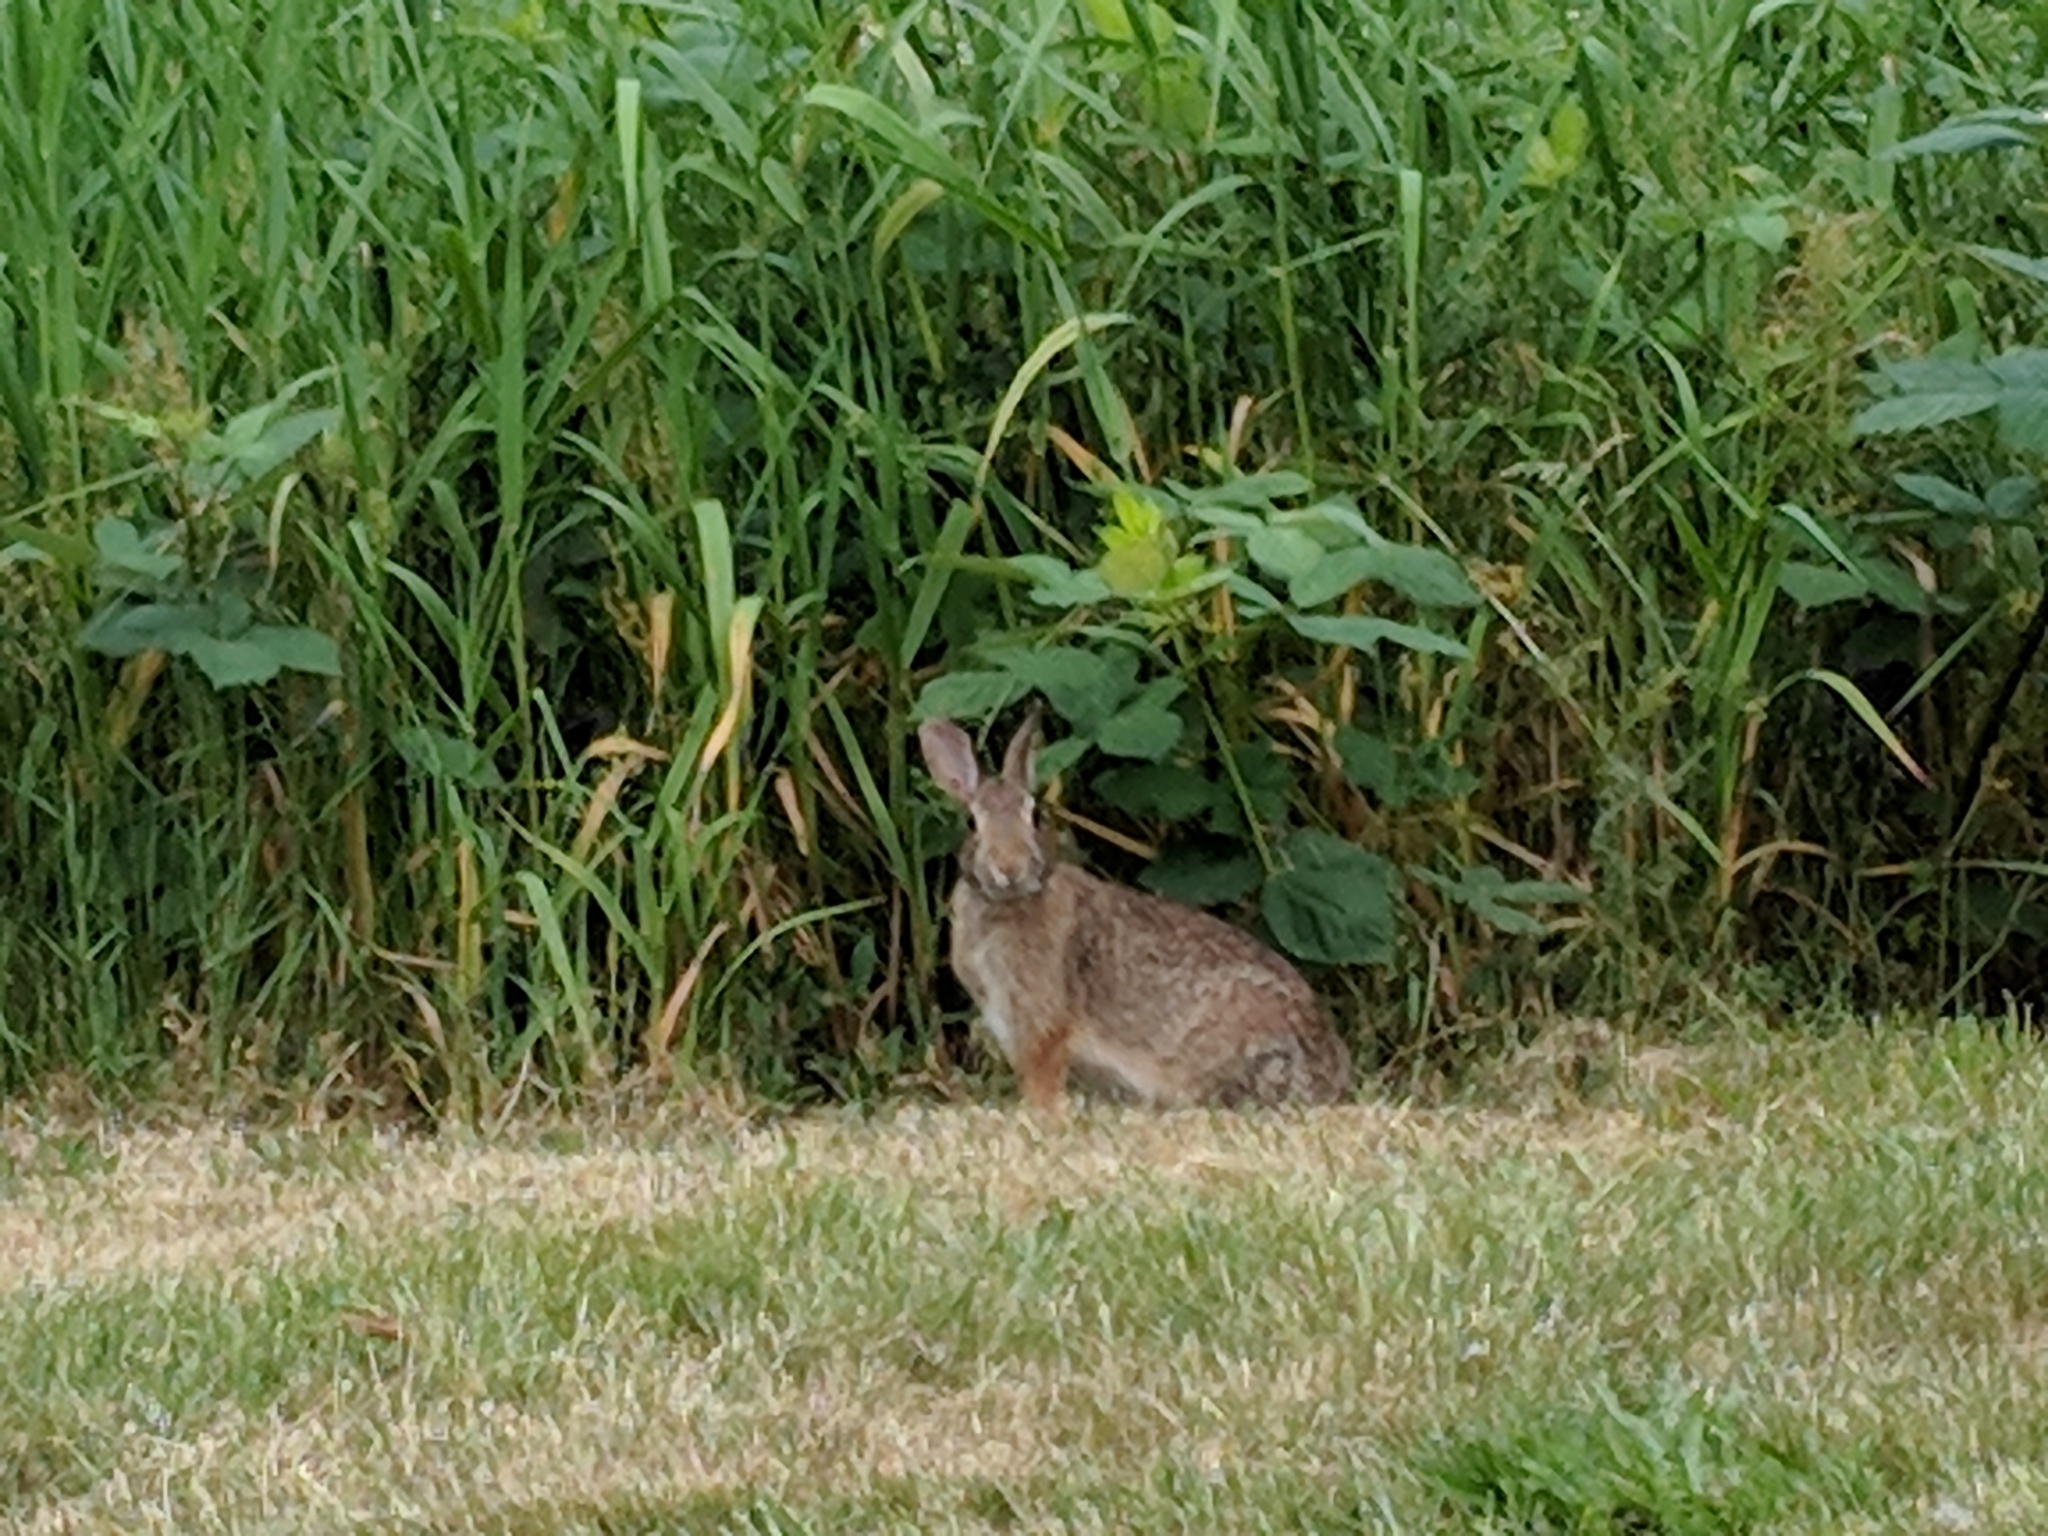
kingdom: Animalia
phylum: Chordata
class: Mammalia
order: Lagomorpha
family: Leporidae
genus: Sylvilagus
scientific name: Sylvilagus floridanus
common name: Eastern cottontail
